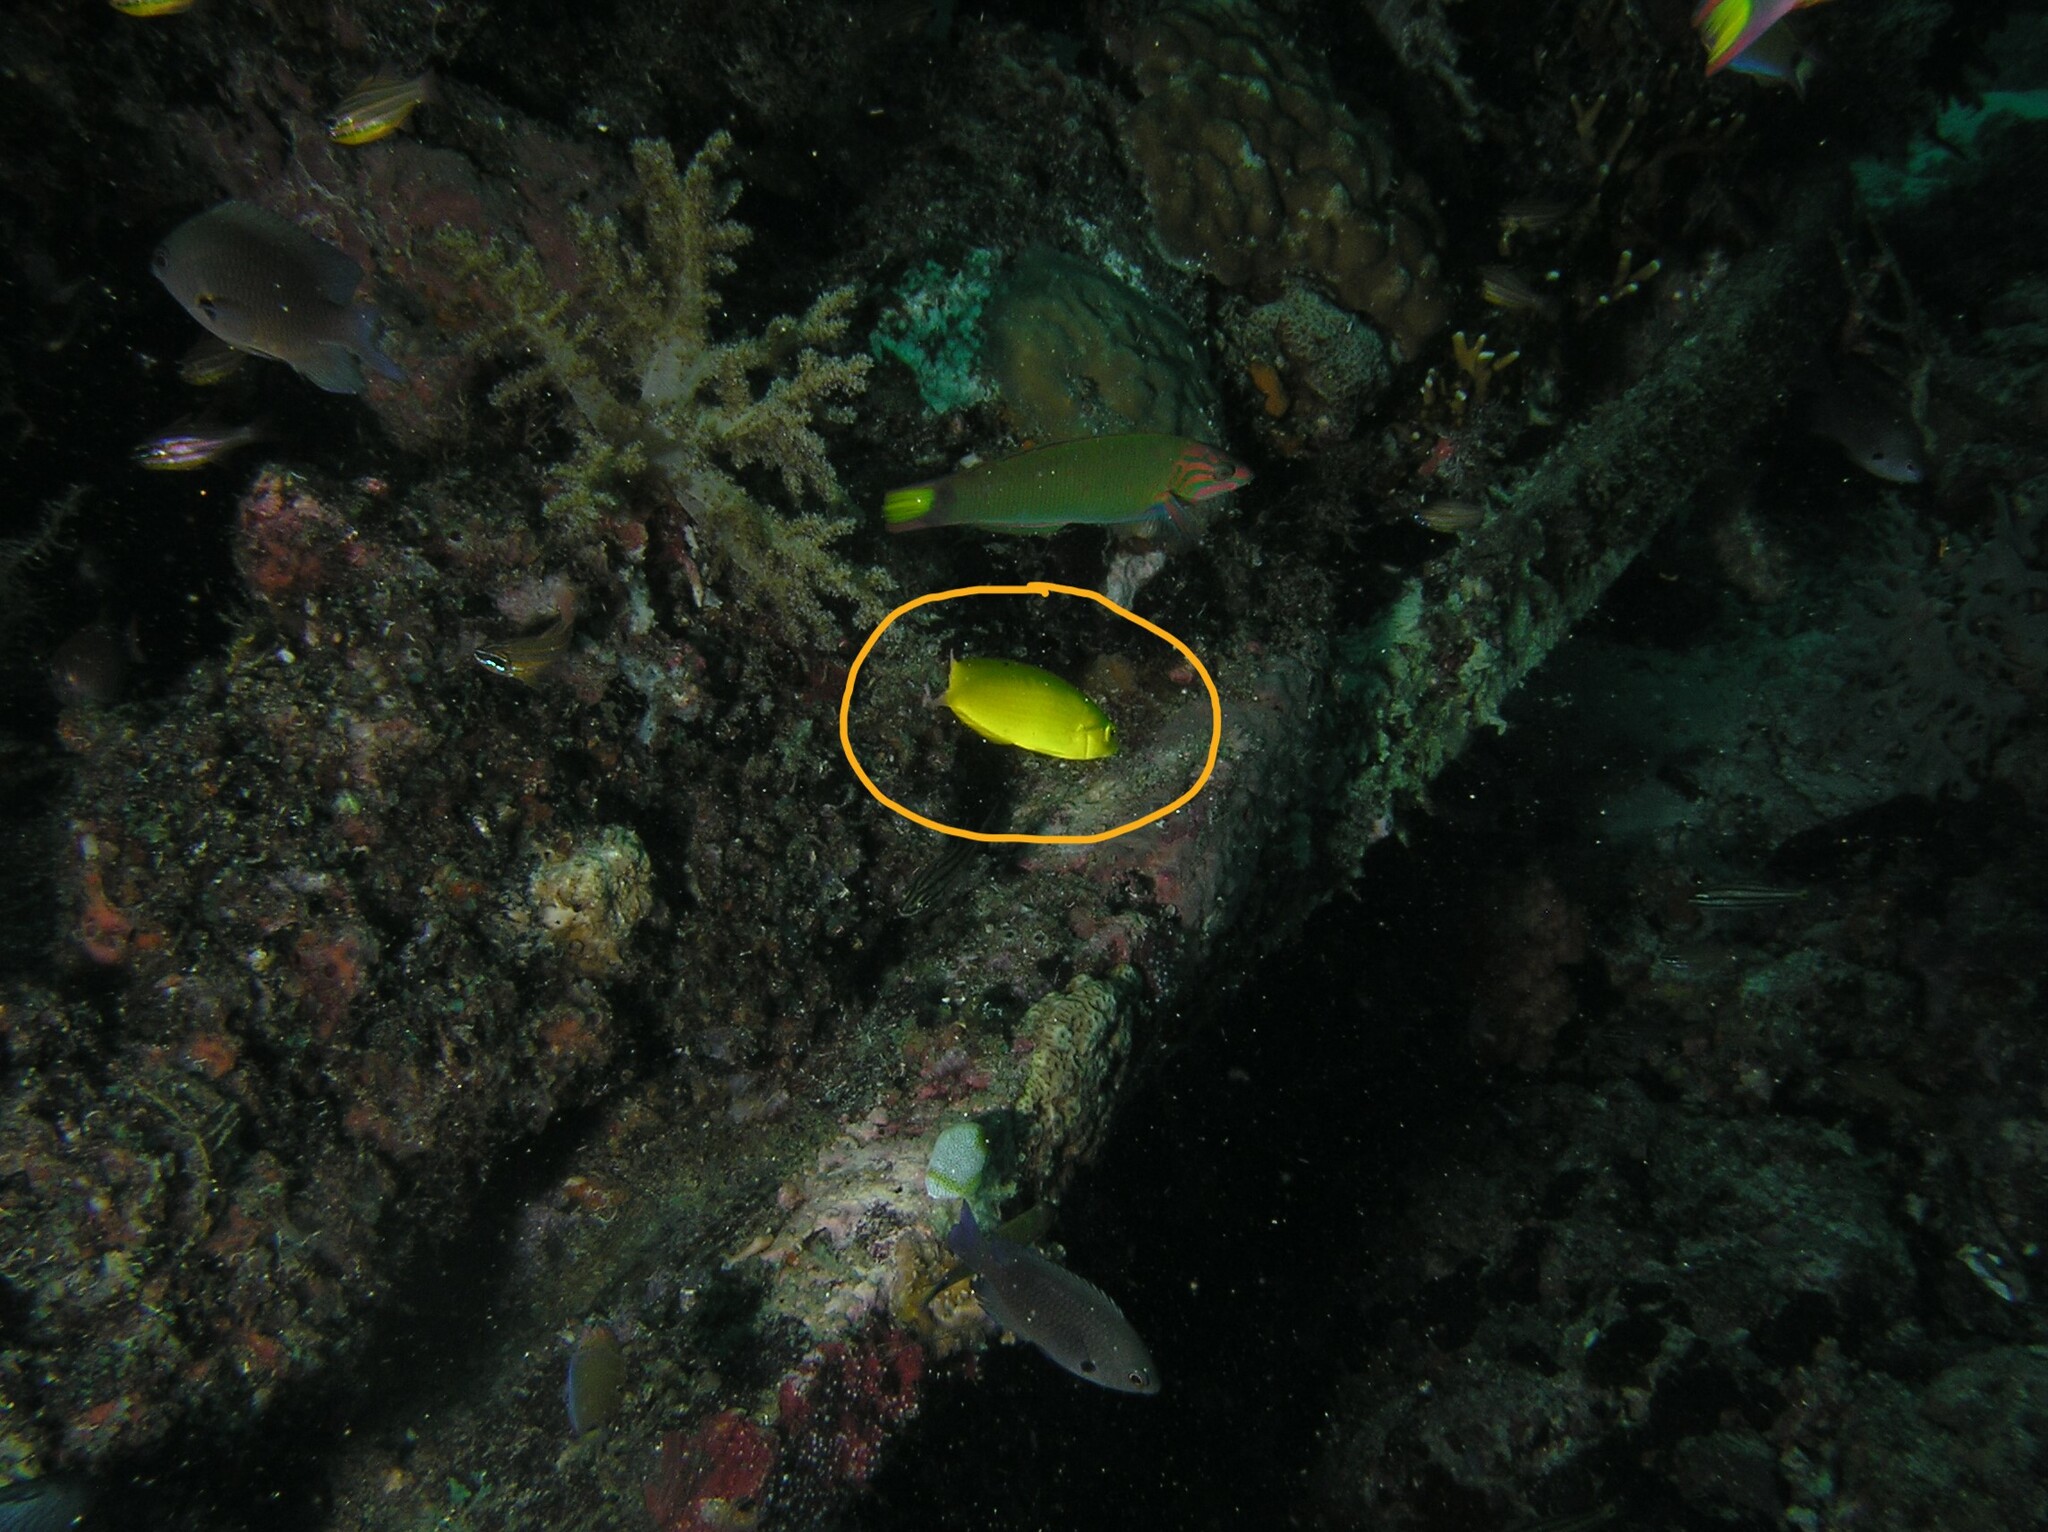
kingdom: Animalia
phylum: Chordata
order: Perciformes
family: Labridae
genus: Halichoeres
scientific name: Halichoeres chrysus
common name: Canary wrasse
